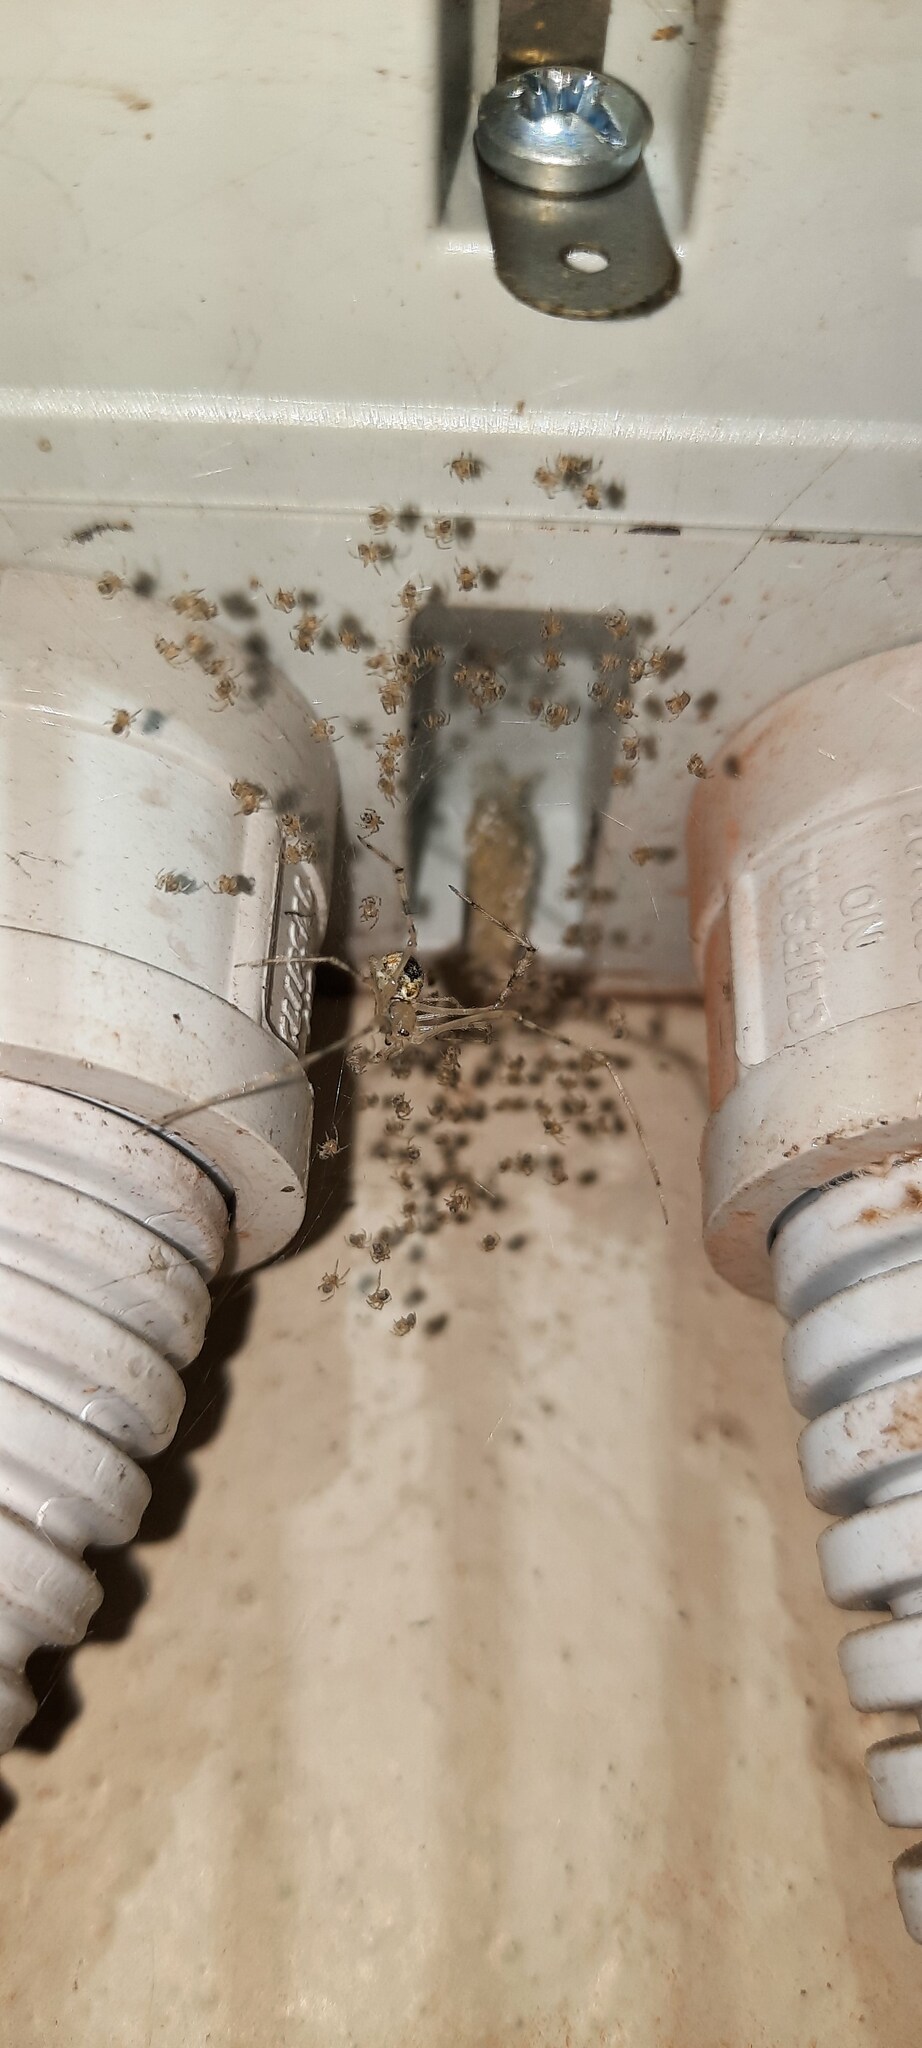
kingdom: Animalia
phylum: Arthropoda
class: Arachnida
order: Araneae
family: Theridiidae
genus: Cryptachaea
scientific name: Cryptachaea gigantipes
